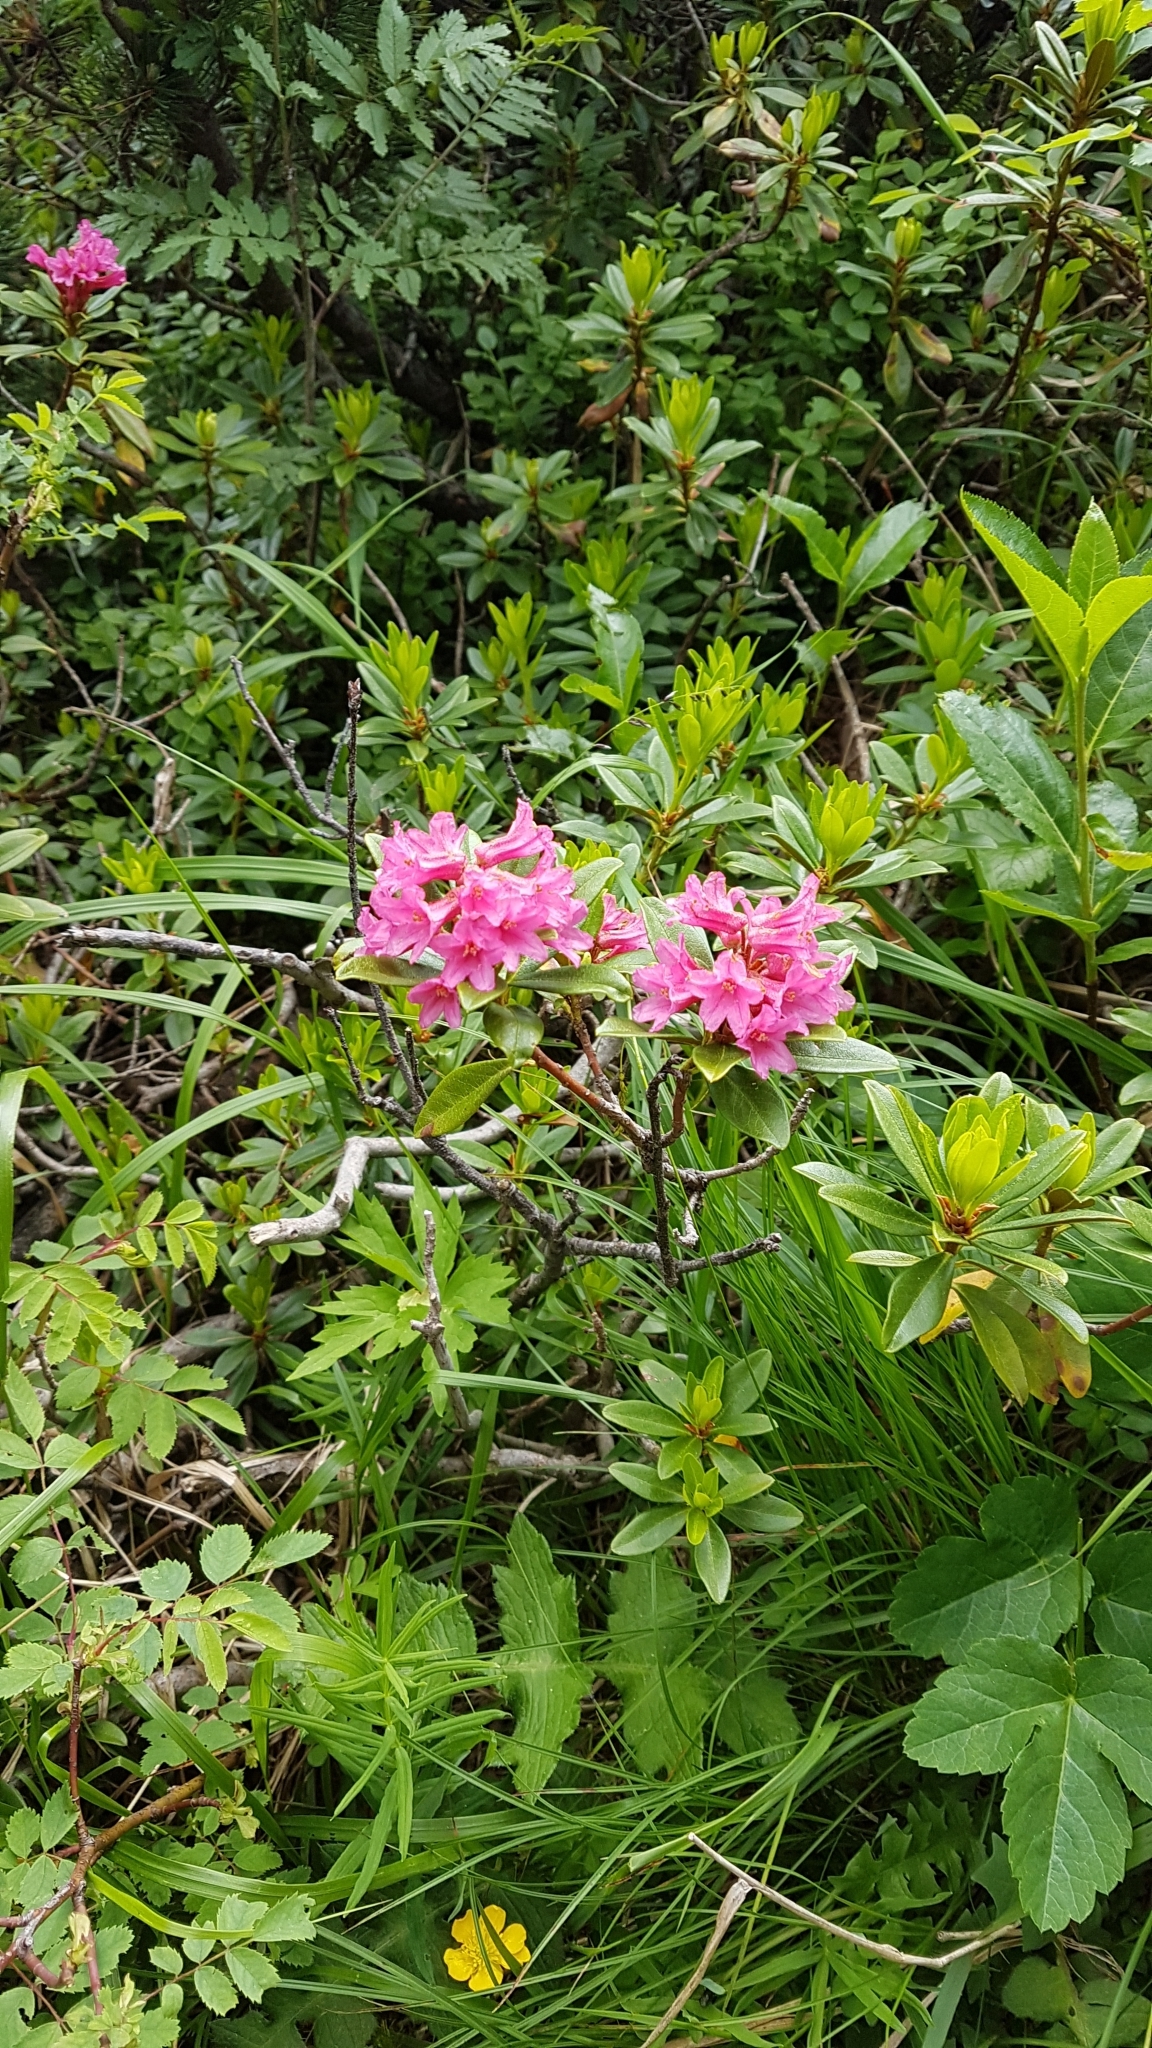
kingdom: Plantae
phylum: Tracheophyta
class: Magnoliopsida
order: Ericales
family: Ericaceae
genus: Rhododendron
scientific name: Rhododendron ferrugineum
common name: Alpenrose
